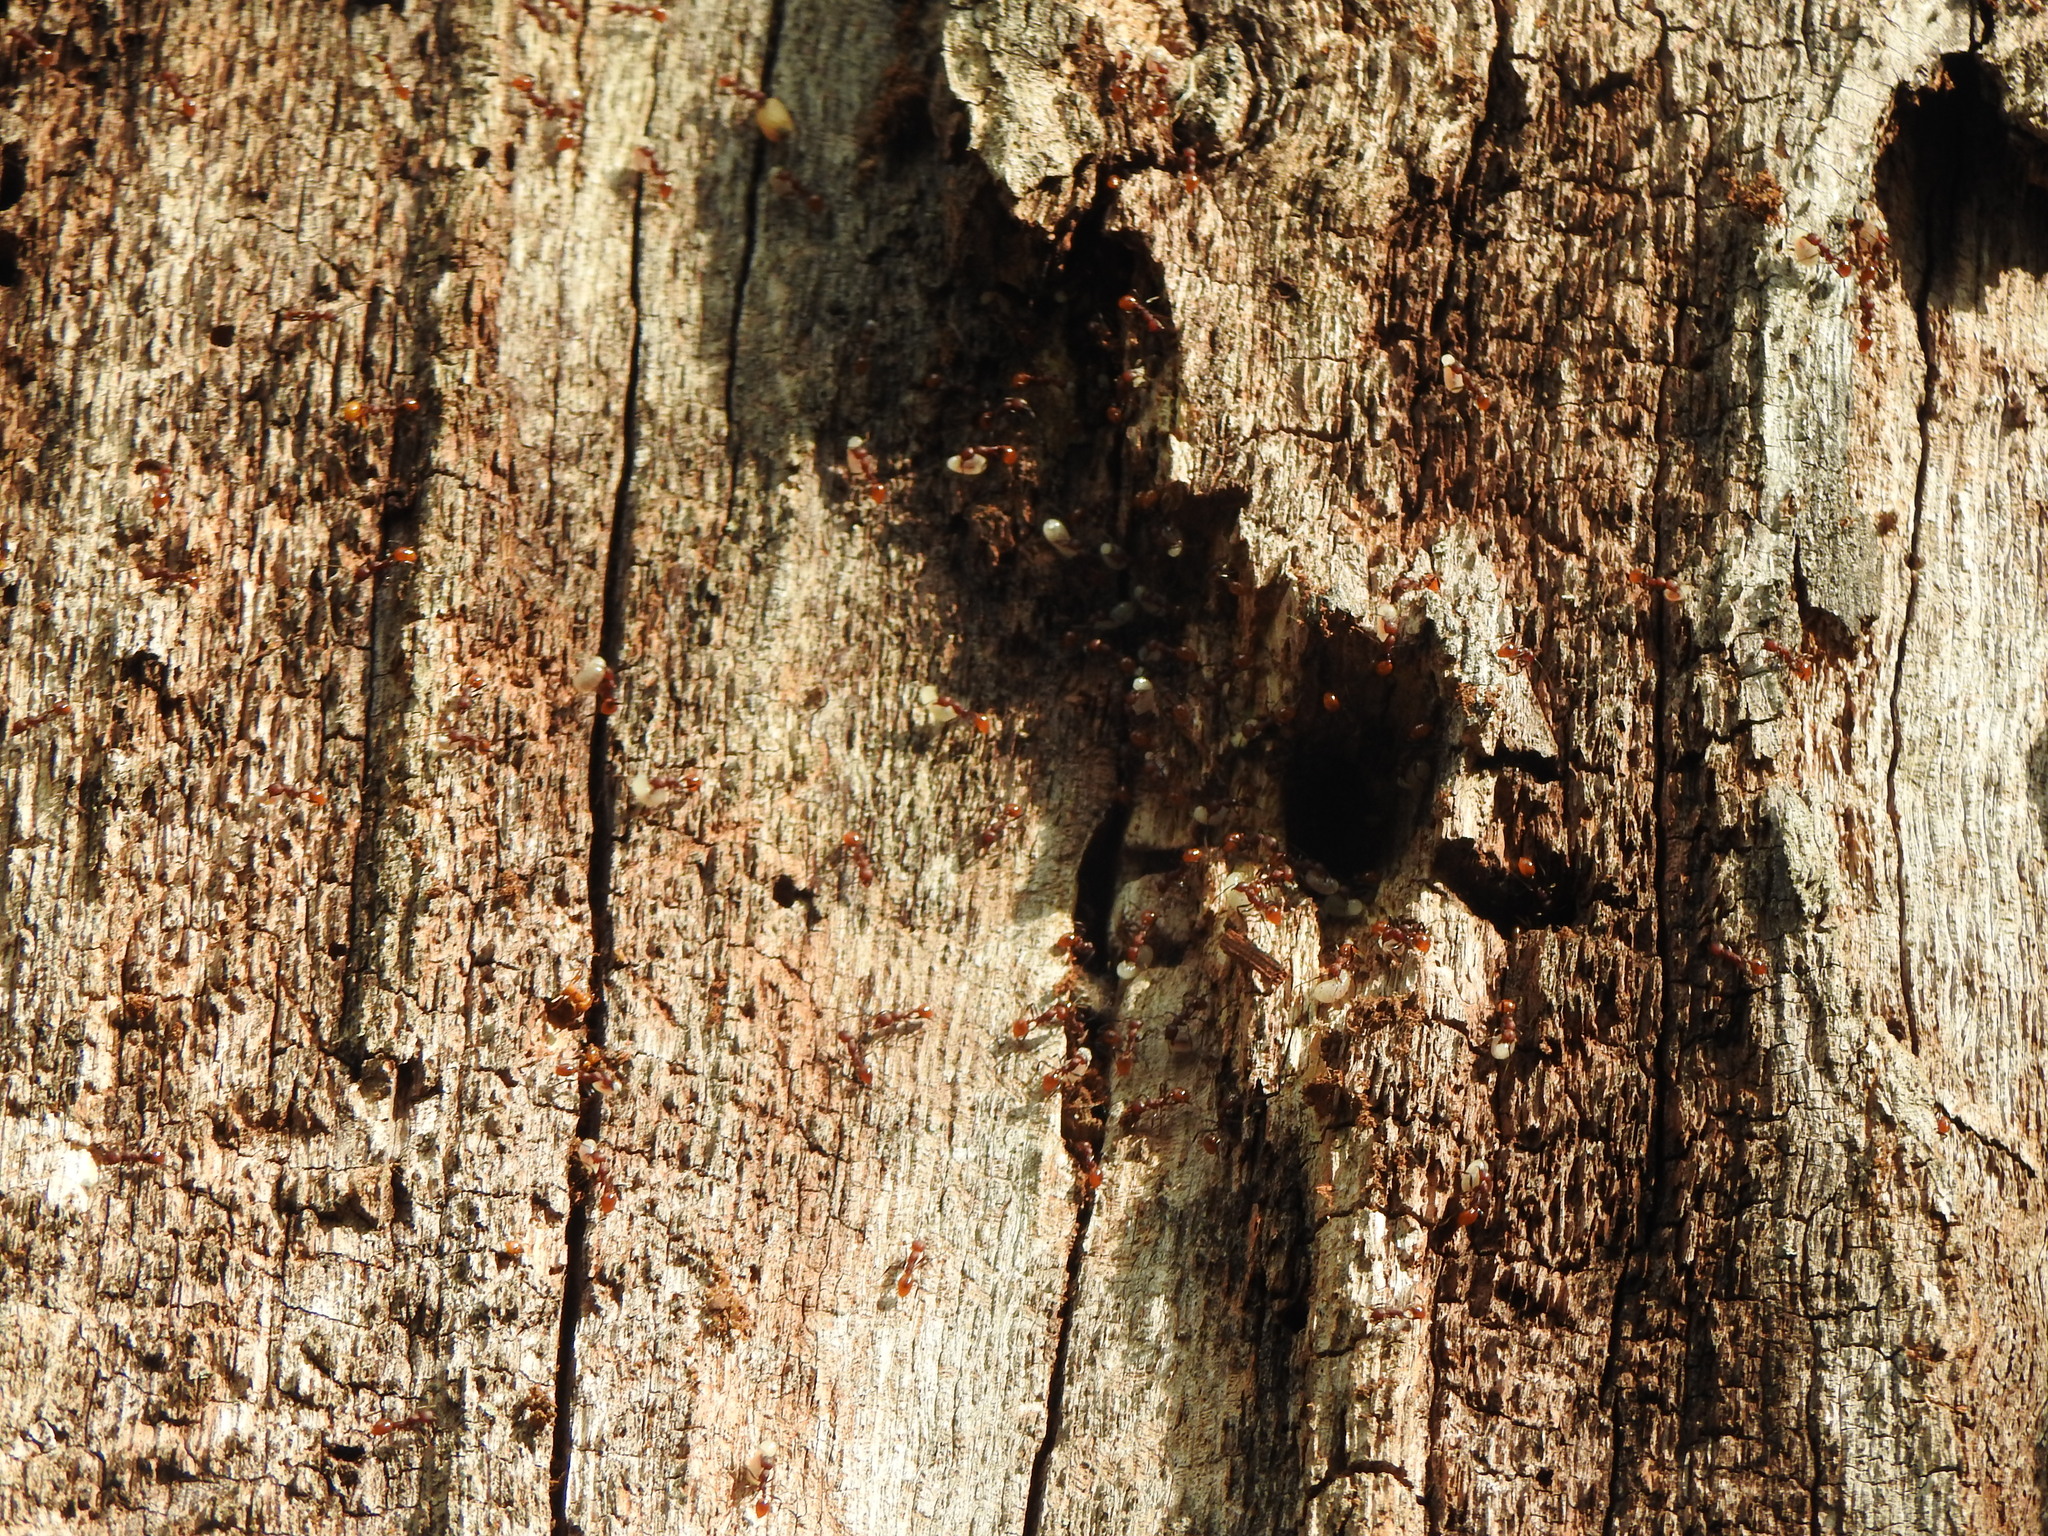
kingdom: Animalia
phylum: Arthropoda
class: Insecta
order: Hymenoptera
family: Formicidae
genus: Aphaenogaster
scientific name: Aphaenogaster tennesseensis
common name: Tennessee thread-waisted ant
